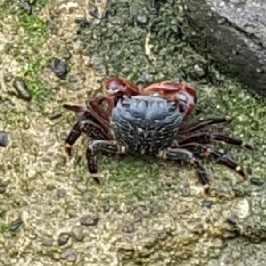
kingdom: Animalia
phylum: Arthropoda
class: Malacostraca
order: Decapoda
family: Grapsidae
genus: Pachygrapsus
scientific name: Pachygrapsus crassipes
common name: Striped shore crab
